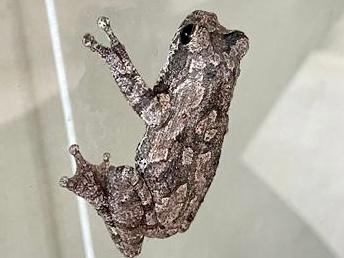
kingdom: Animalia
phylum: Chordata
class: Amphibia
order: Anura
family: Rhacophoridae
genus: Chiromantis
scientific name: Chiromantis xerampelina
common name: African gray treefrog
